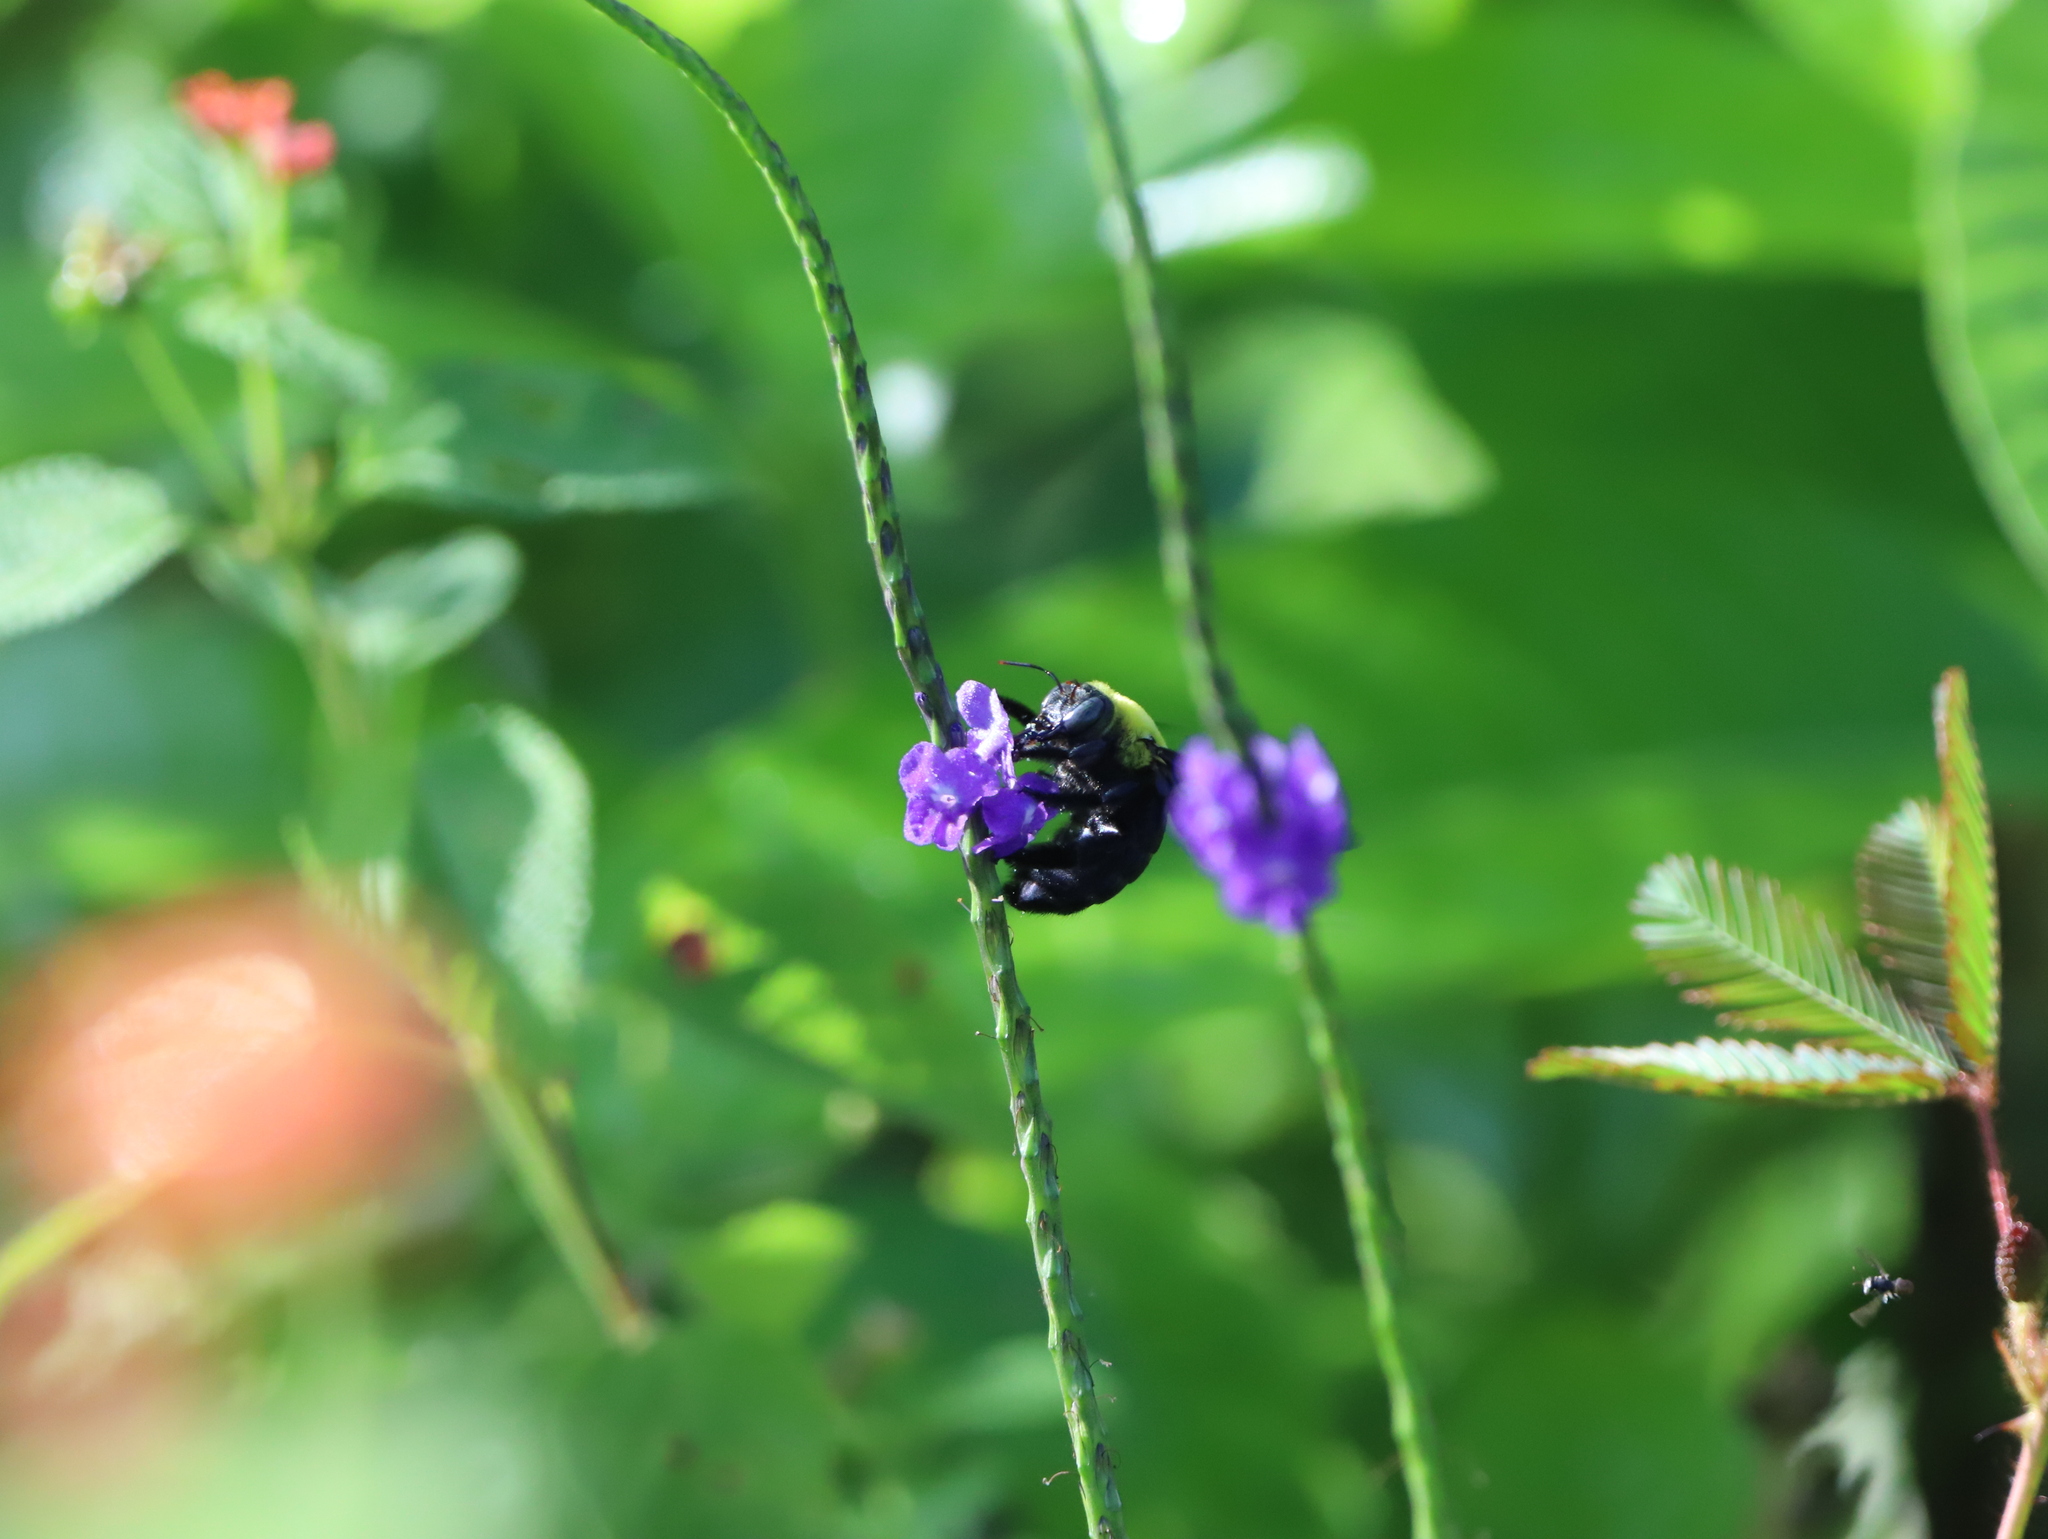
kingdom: Animalia
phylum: Arthropoda
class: Insecta
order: Hymenoptera
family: Apidae
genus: Xylocopa
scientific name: Xylocopa ruficornis
